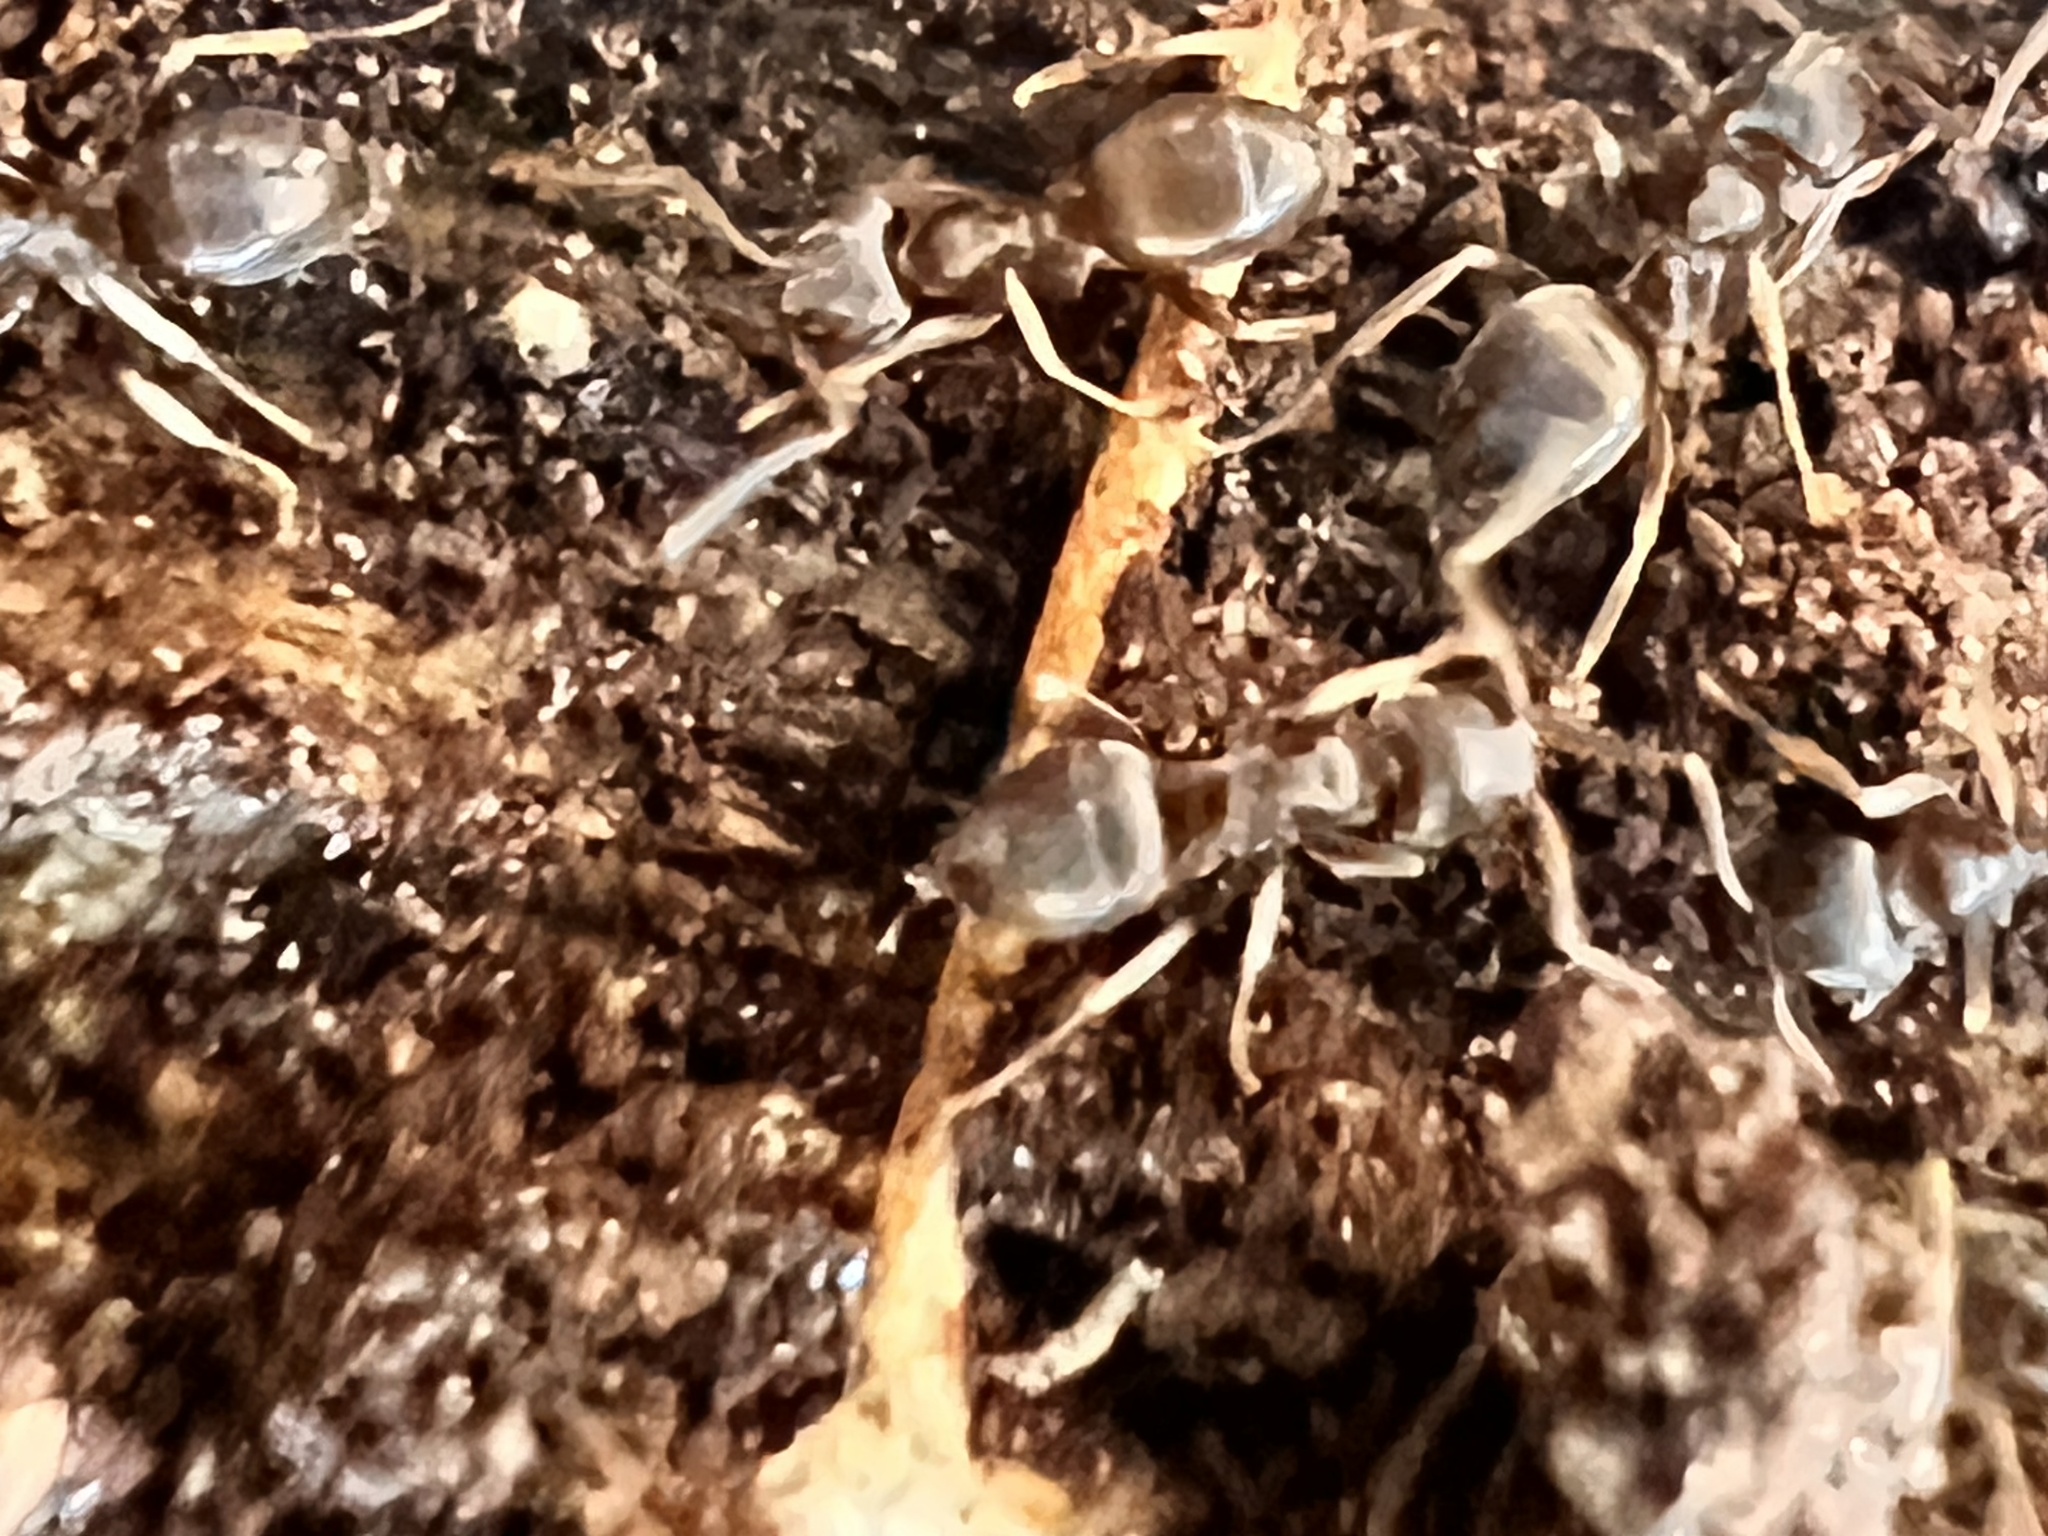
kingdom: Animalia
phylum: Arthropoda
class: Insecta
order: Hymenoptera
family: Formicidae
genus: Lasius
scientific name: Lasius americanus
